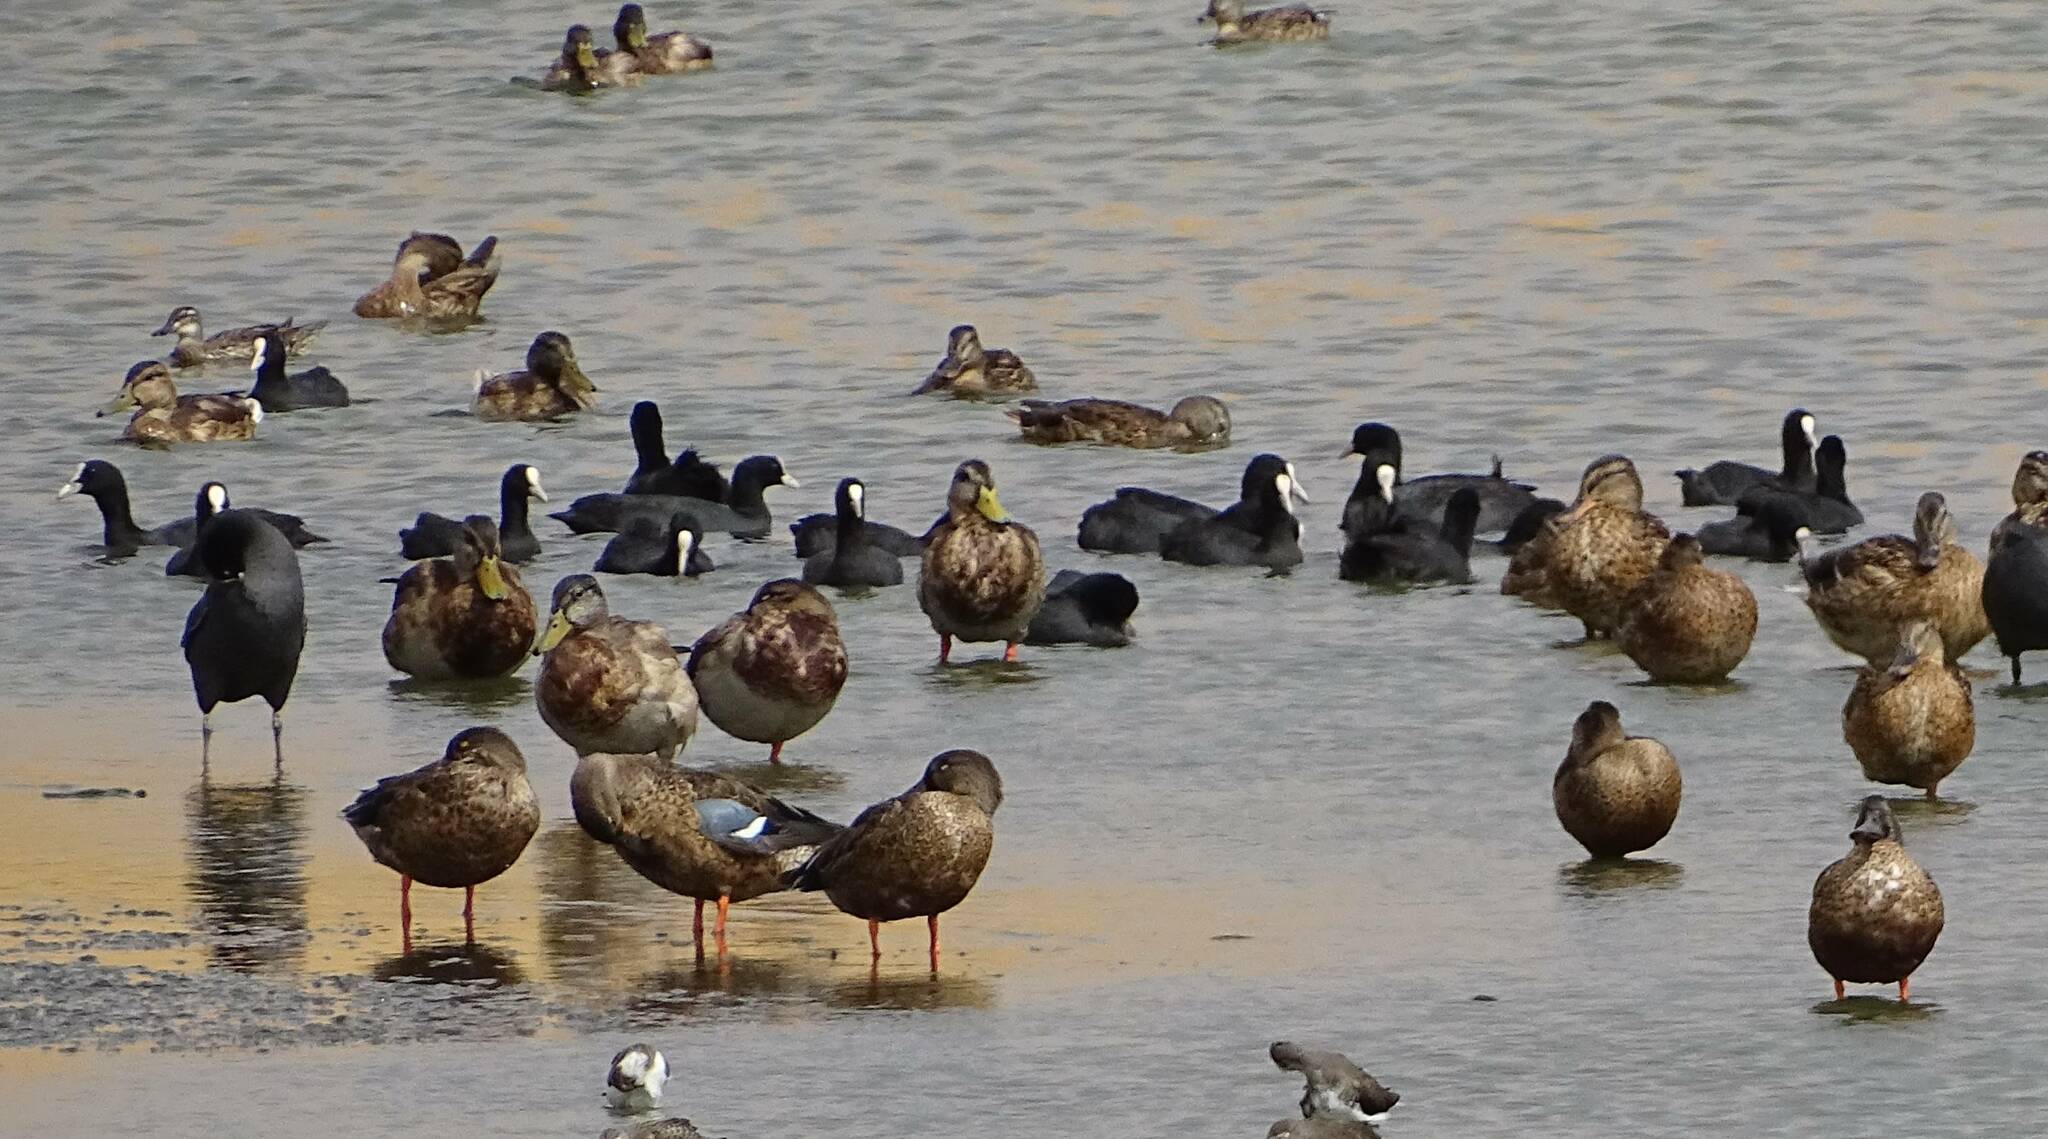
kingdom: Animalia
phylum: Chordata
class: Aves
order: Anseriformes
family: Anatidae
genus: Anas
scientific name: Anas platyrhynchos
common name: Mallard
